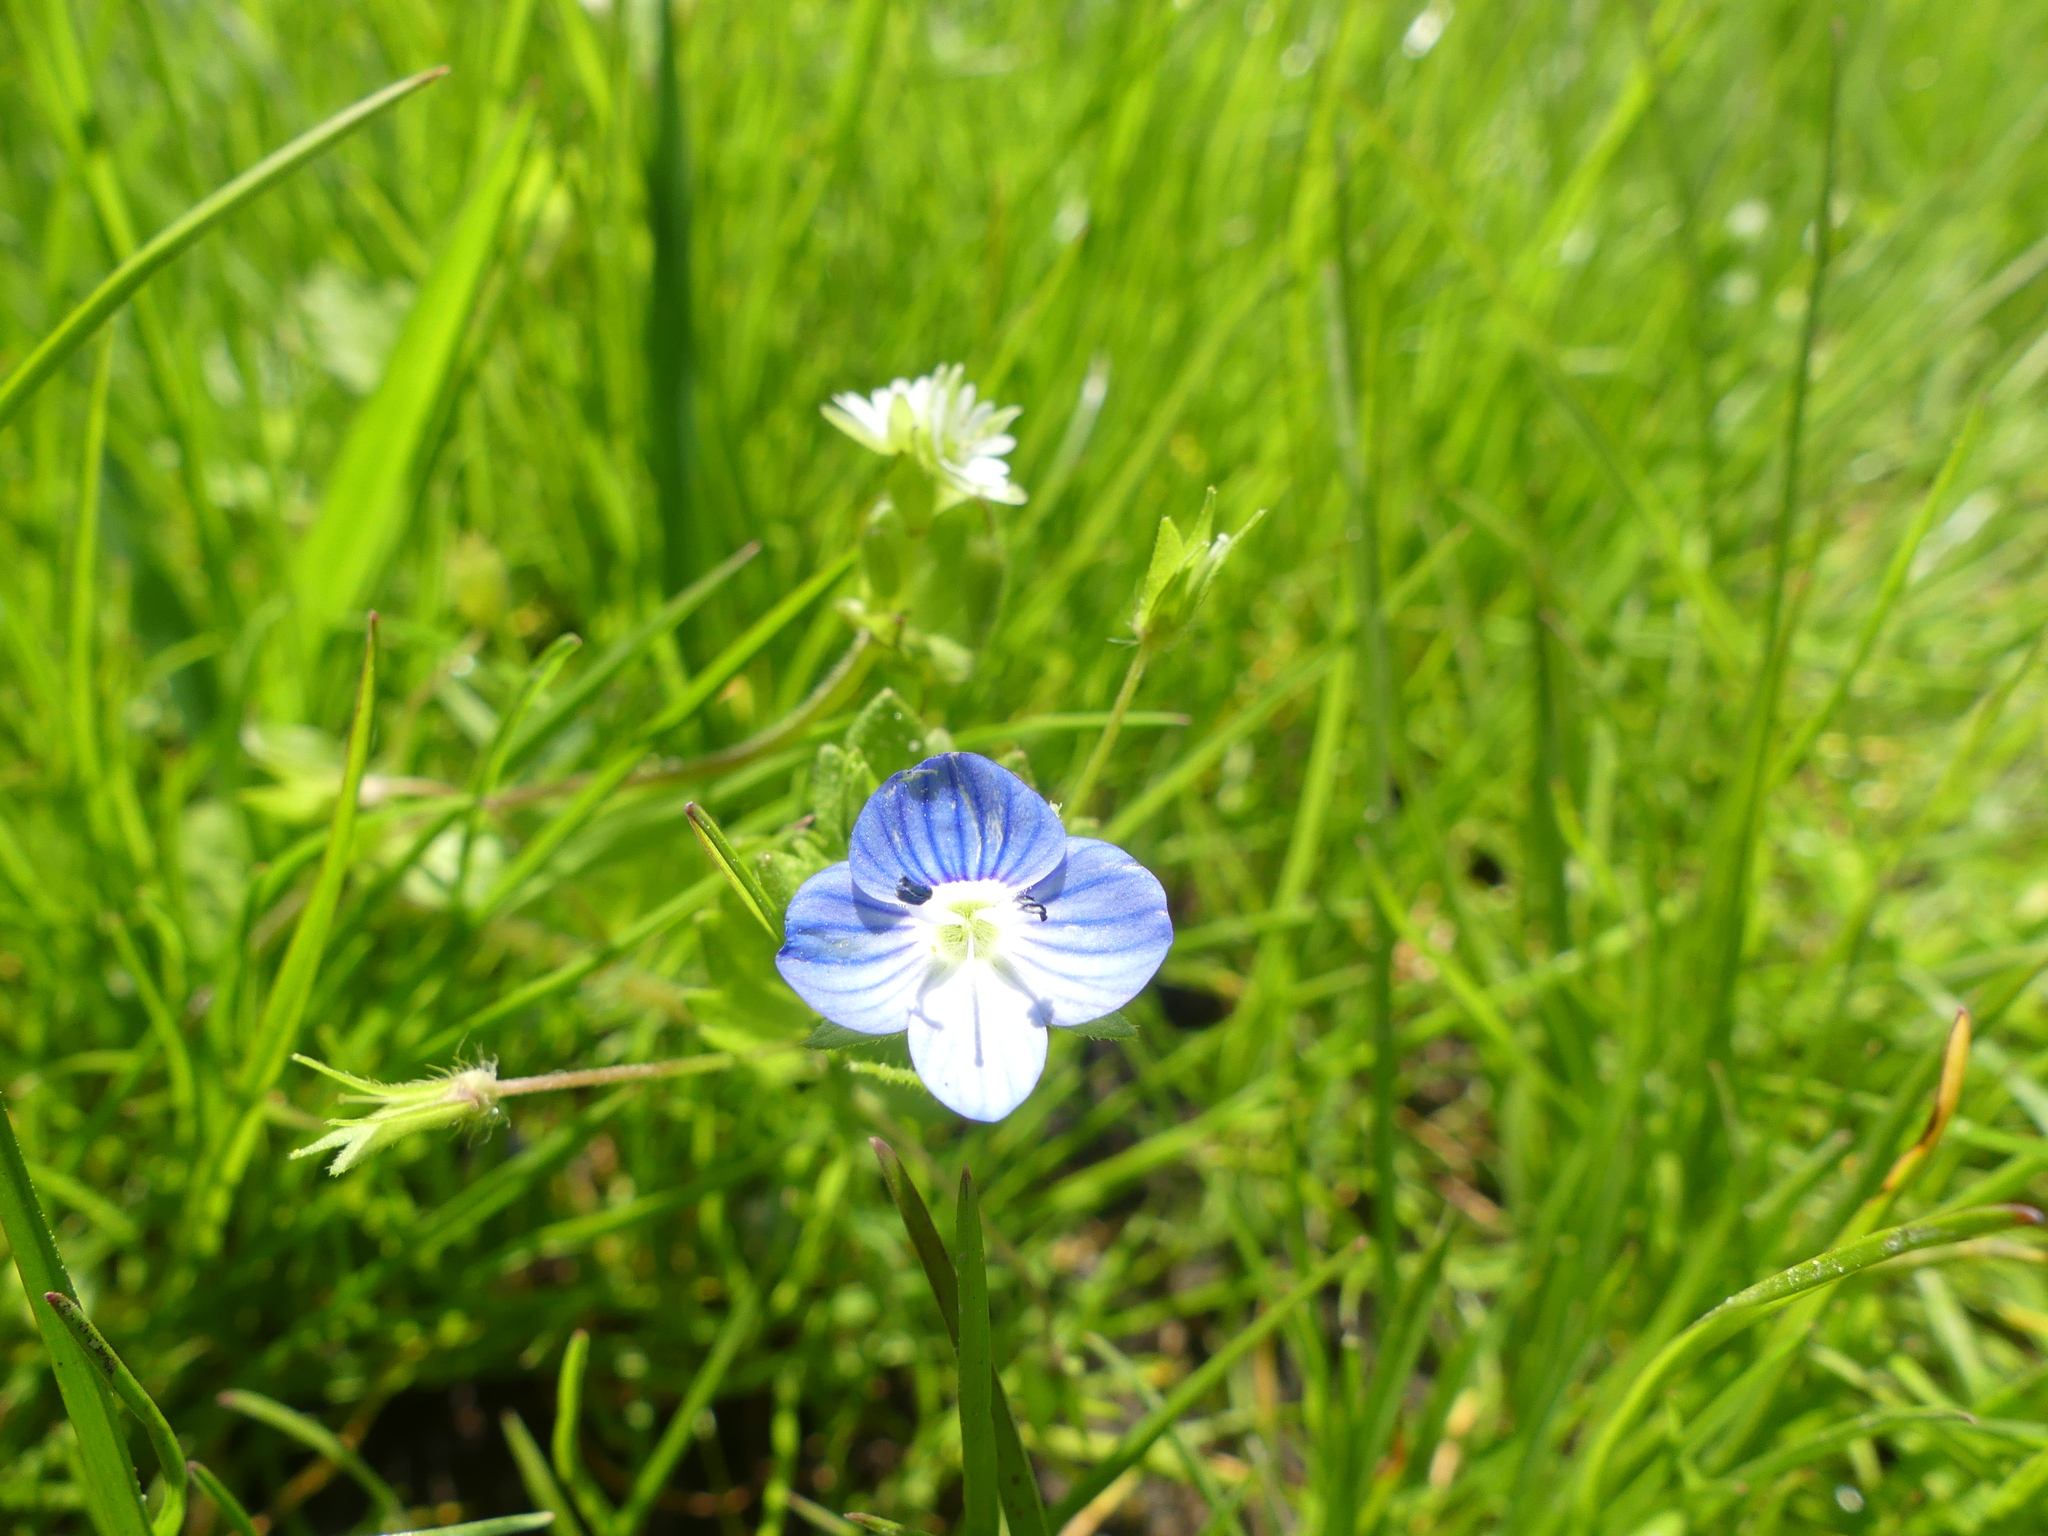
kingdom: Plantae
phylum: Tracheophyta
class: Magnoliopsida
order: Lamiales
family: Plantaginaceae
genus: Veronica
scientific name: Veronica persica
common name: Common field-speedwell
